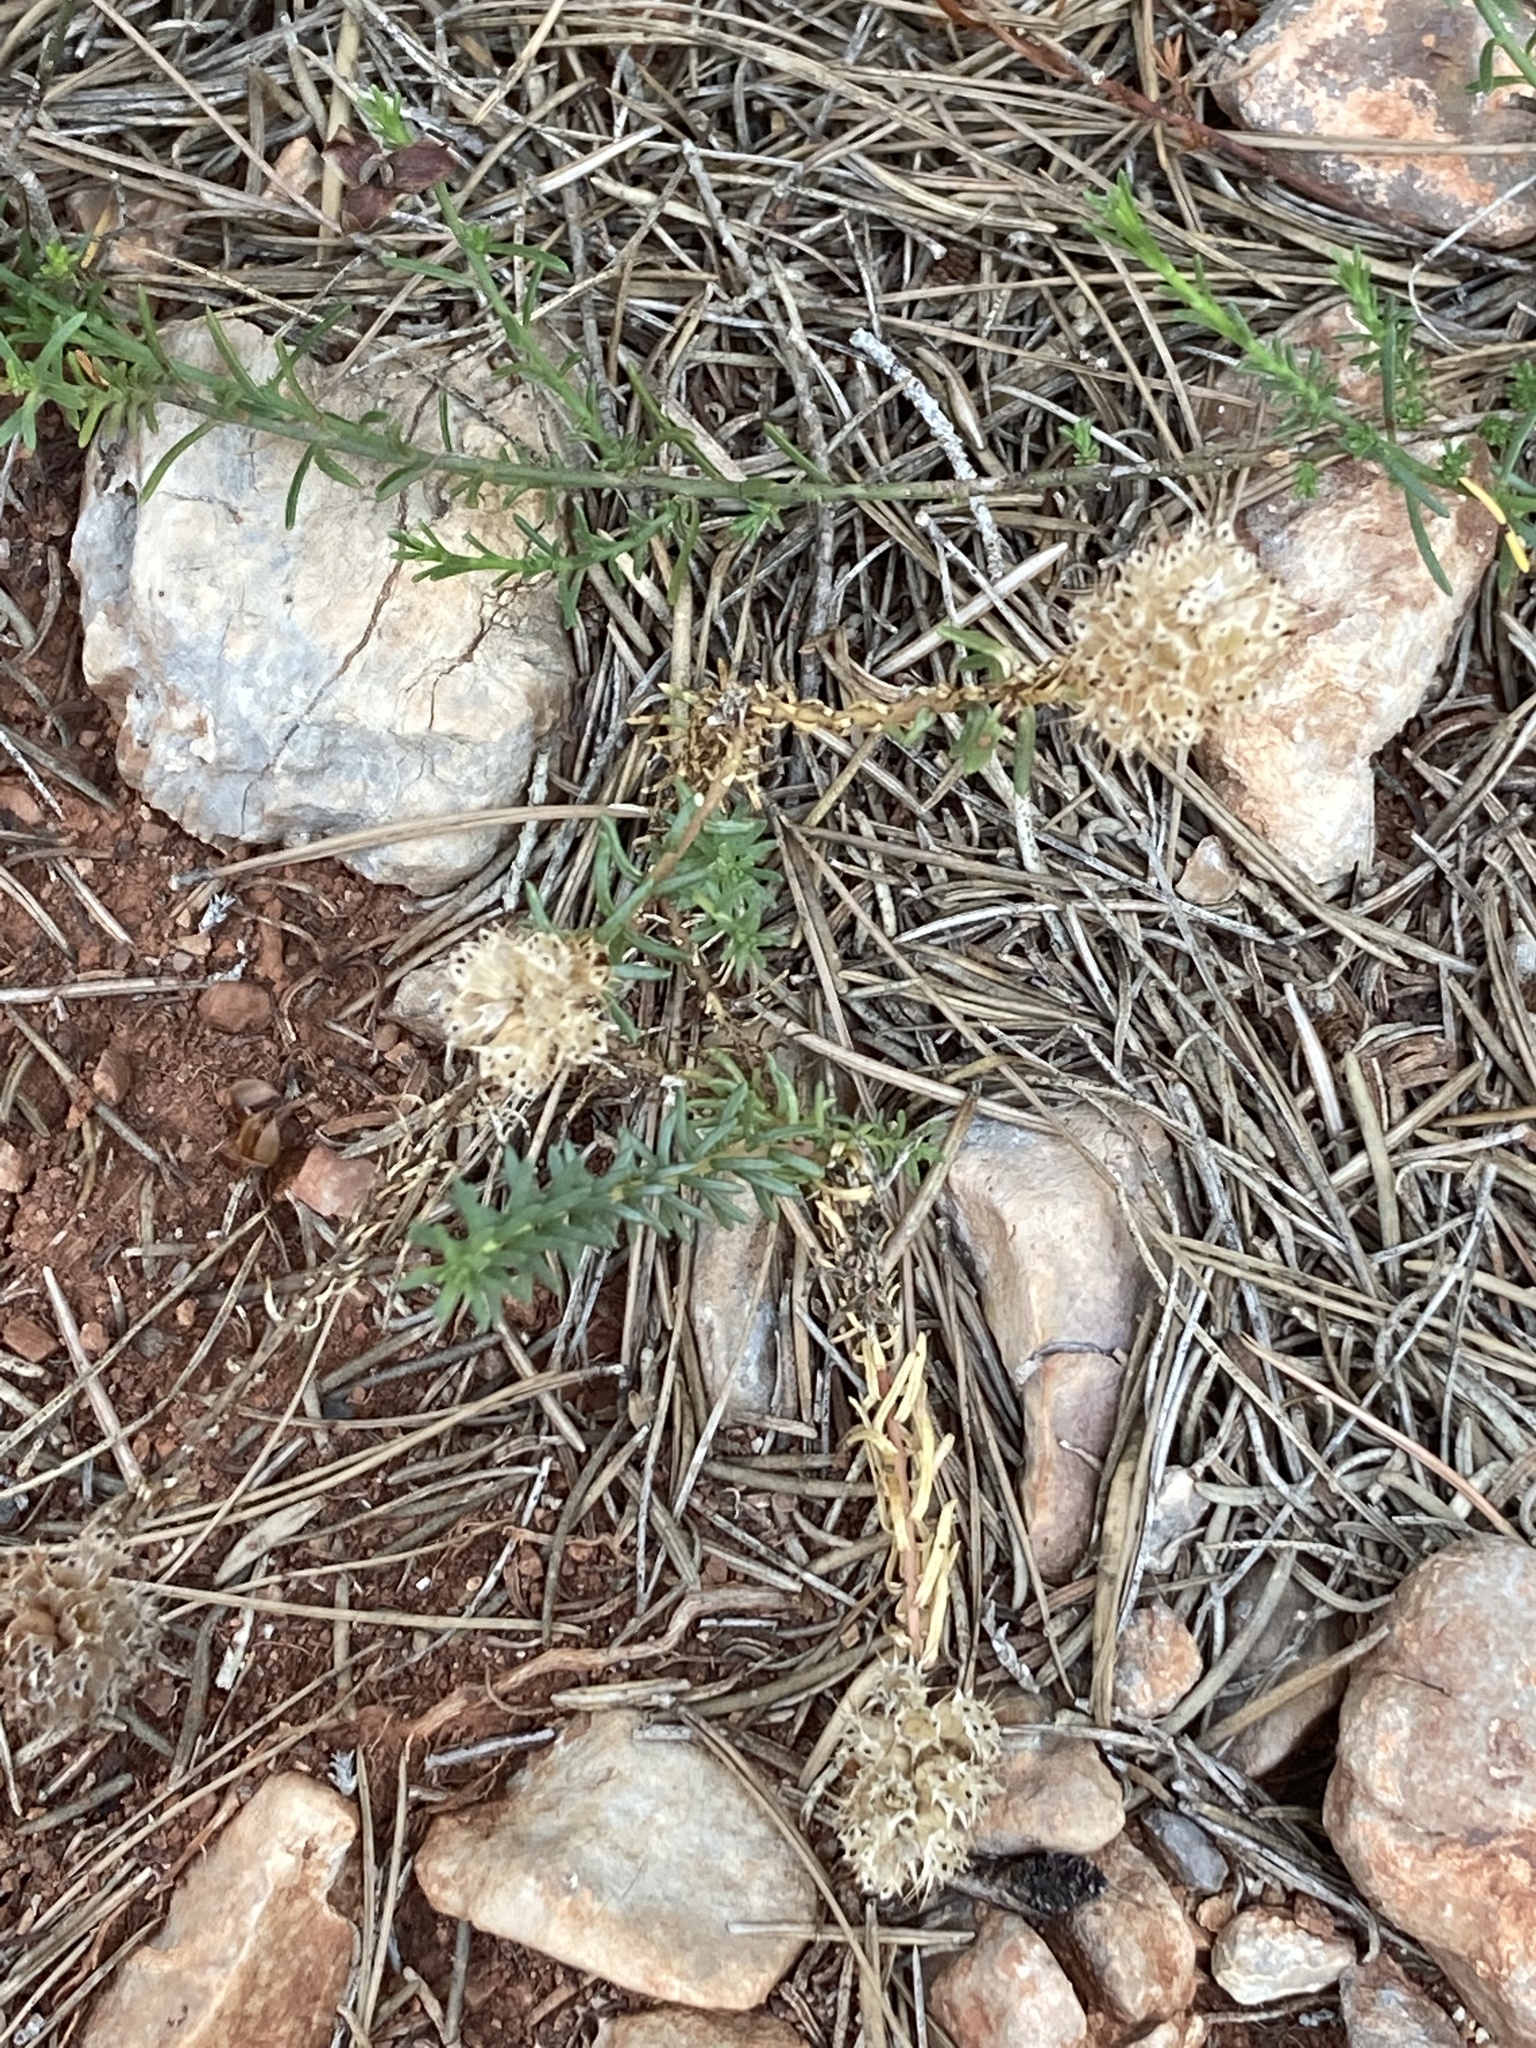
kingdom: Plantae
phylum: Tracheophyta
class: Magnoliopsida
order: Ericales
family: Primulaceae
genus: Coris
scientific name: Coris monspeliensis
